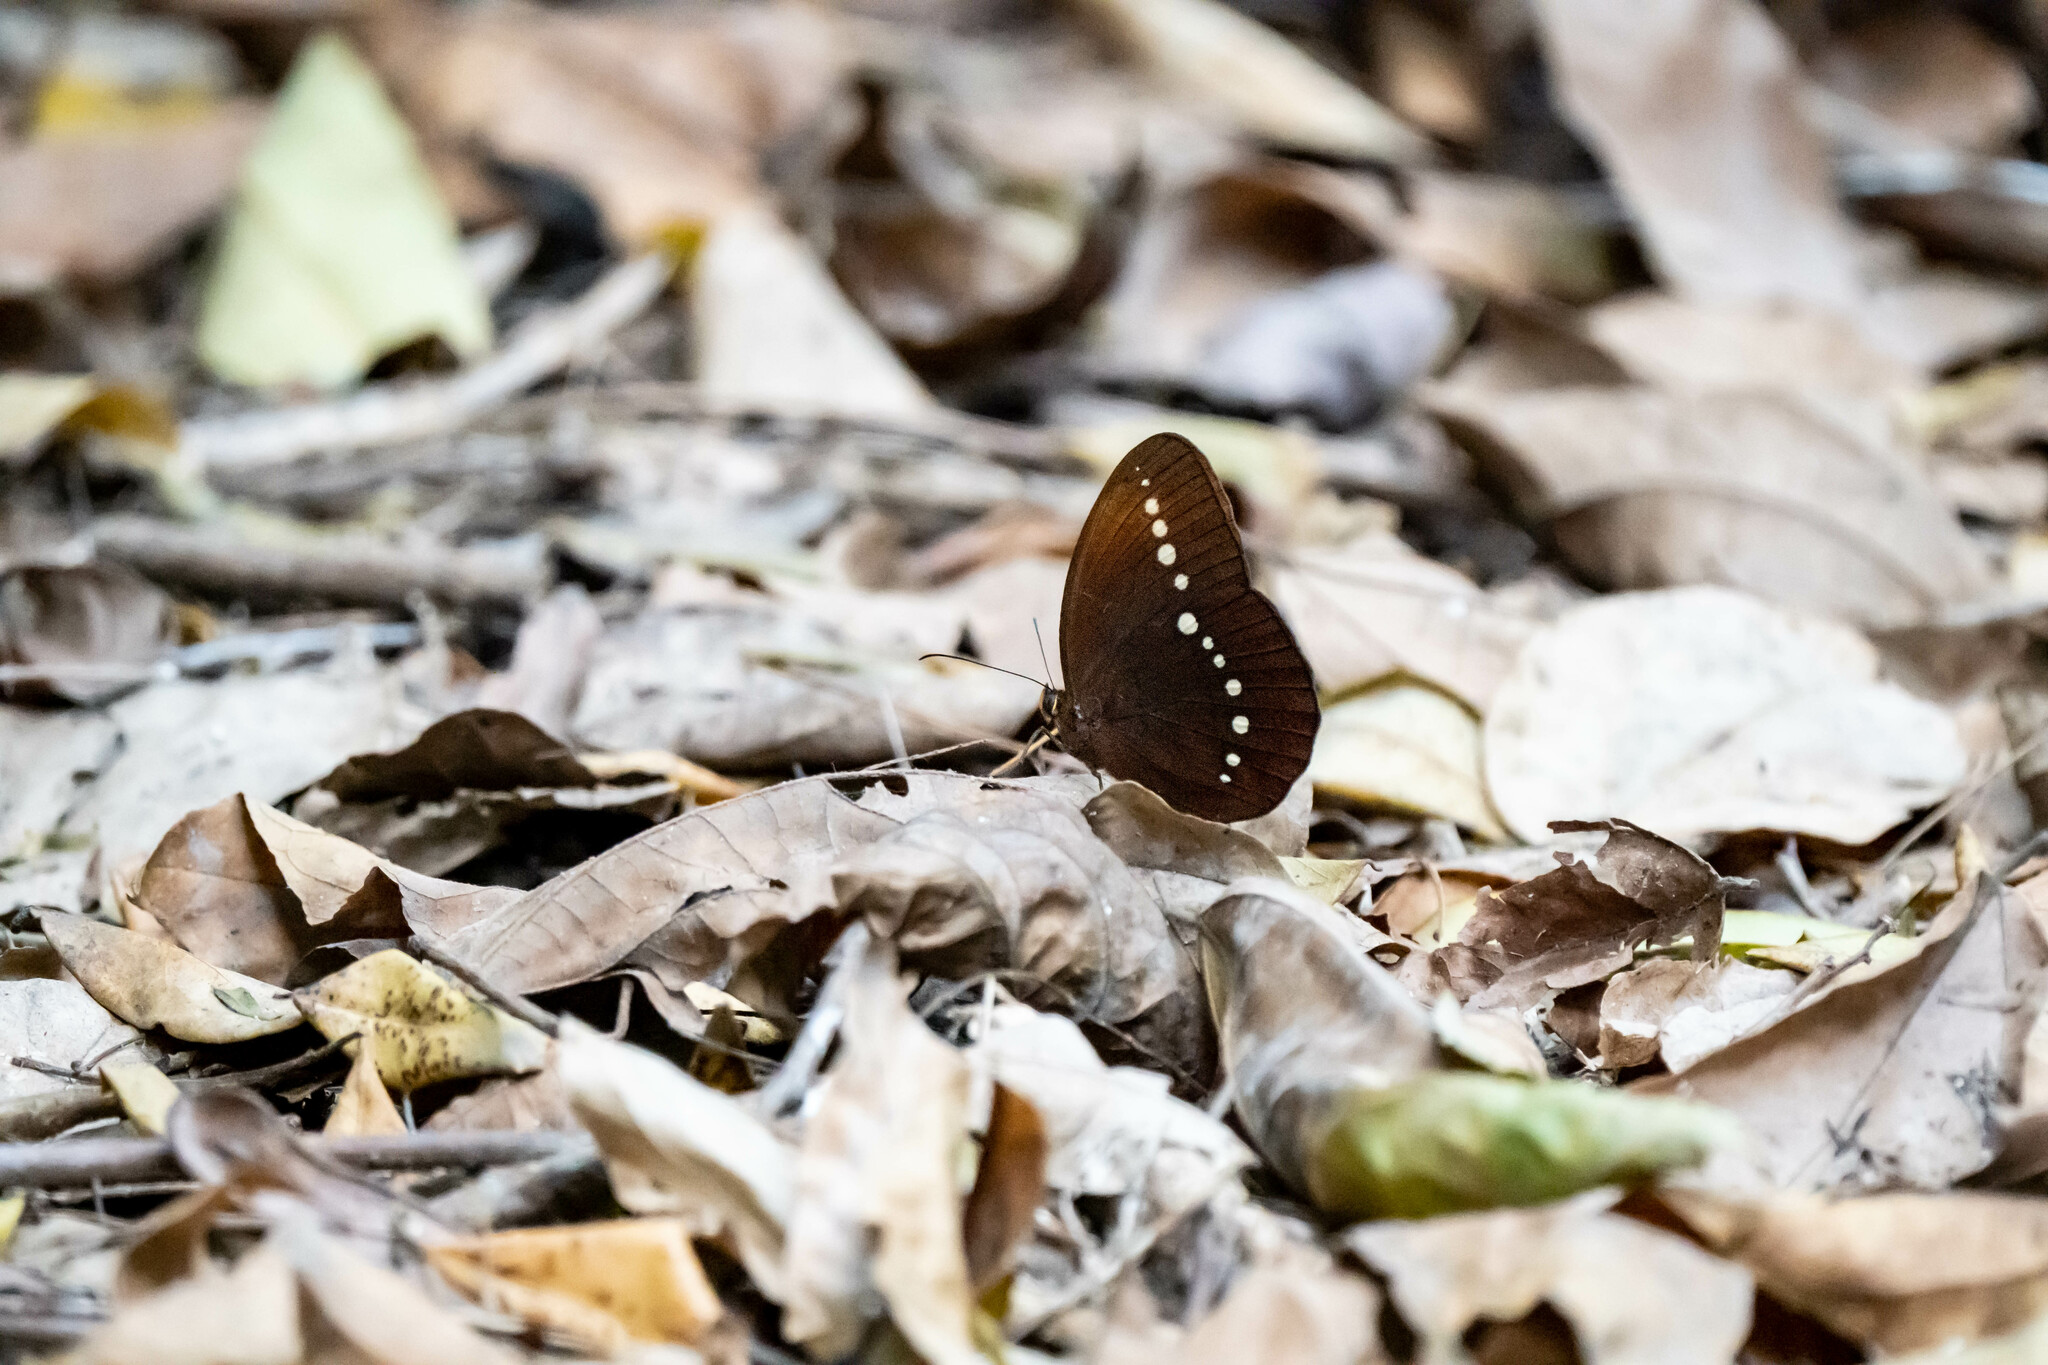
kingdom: Animalia
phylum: Arthropoda
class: Insecta
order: Lepidoptera
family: Nymphalidae
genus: Faunis
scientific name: Faunis eumeus
